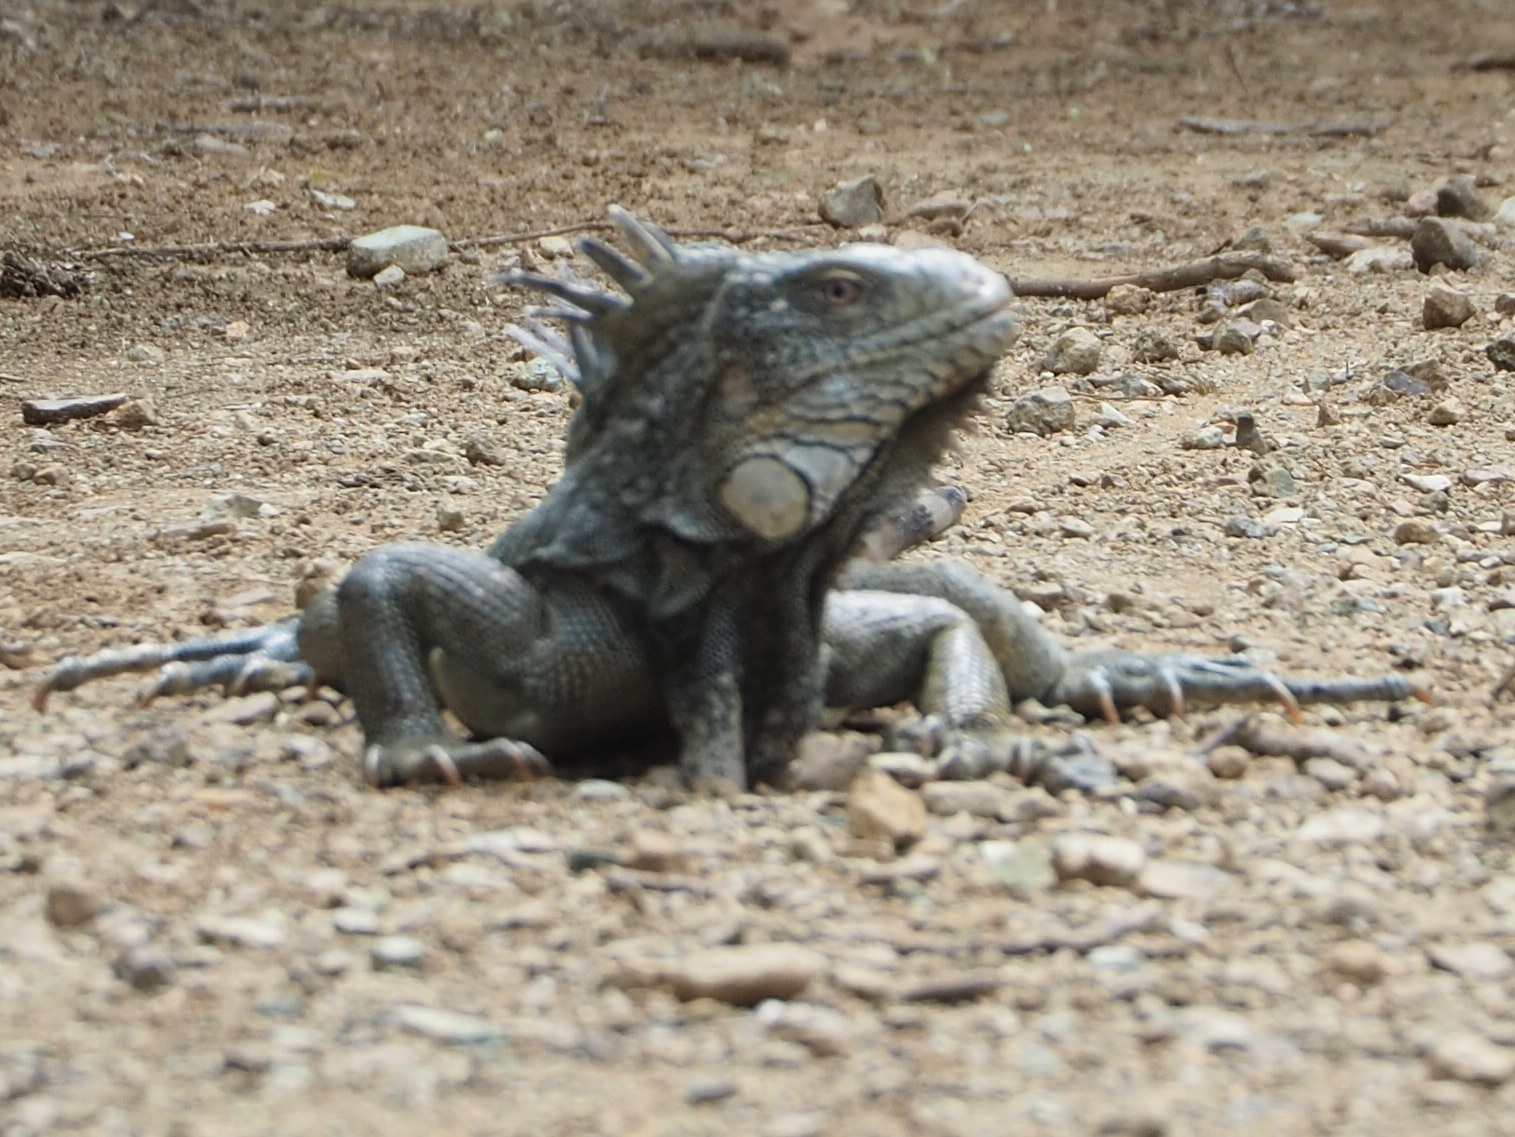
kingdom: Animalia
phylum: Chordata
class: Squamata
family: Iguanidae
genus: Iguana
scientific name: Iguana iguana
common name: Green iguana
